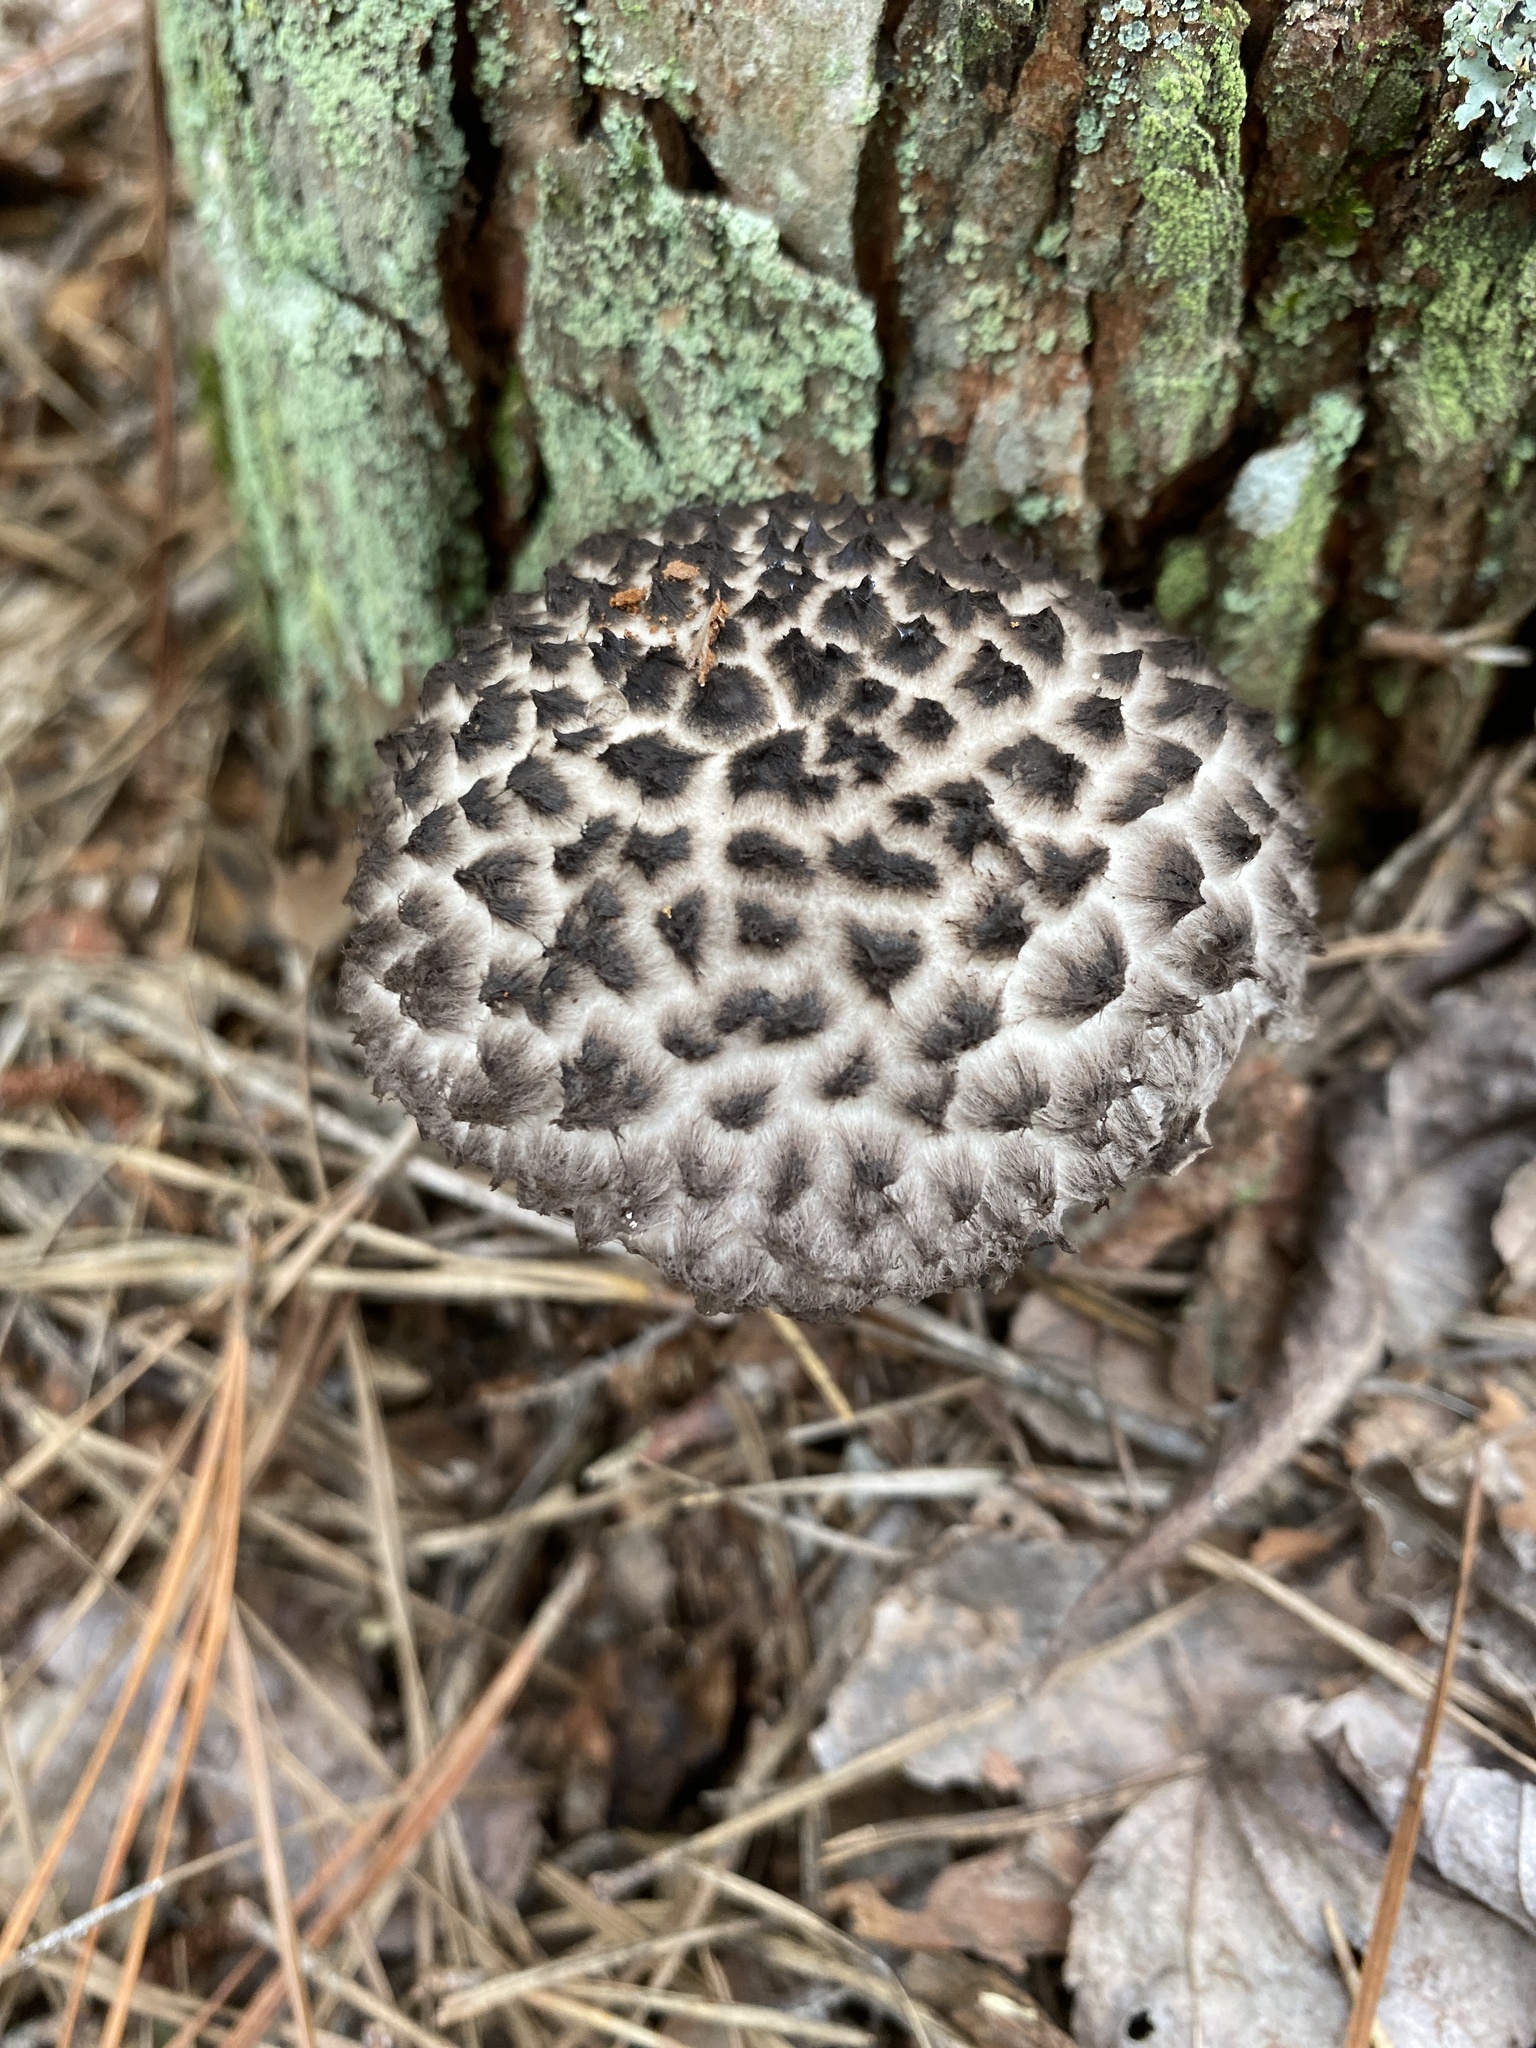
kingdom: Fungi
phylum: Basidiomycota
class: Agaricomycetes
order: Boletales
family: Boletaceae
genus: Strobilomyces
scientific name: Strobilomyces strobilaceus
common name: Old man of the woods
